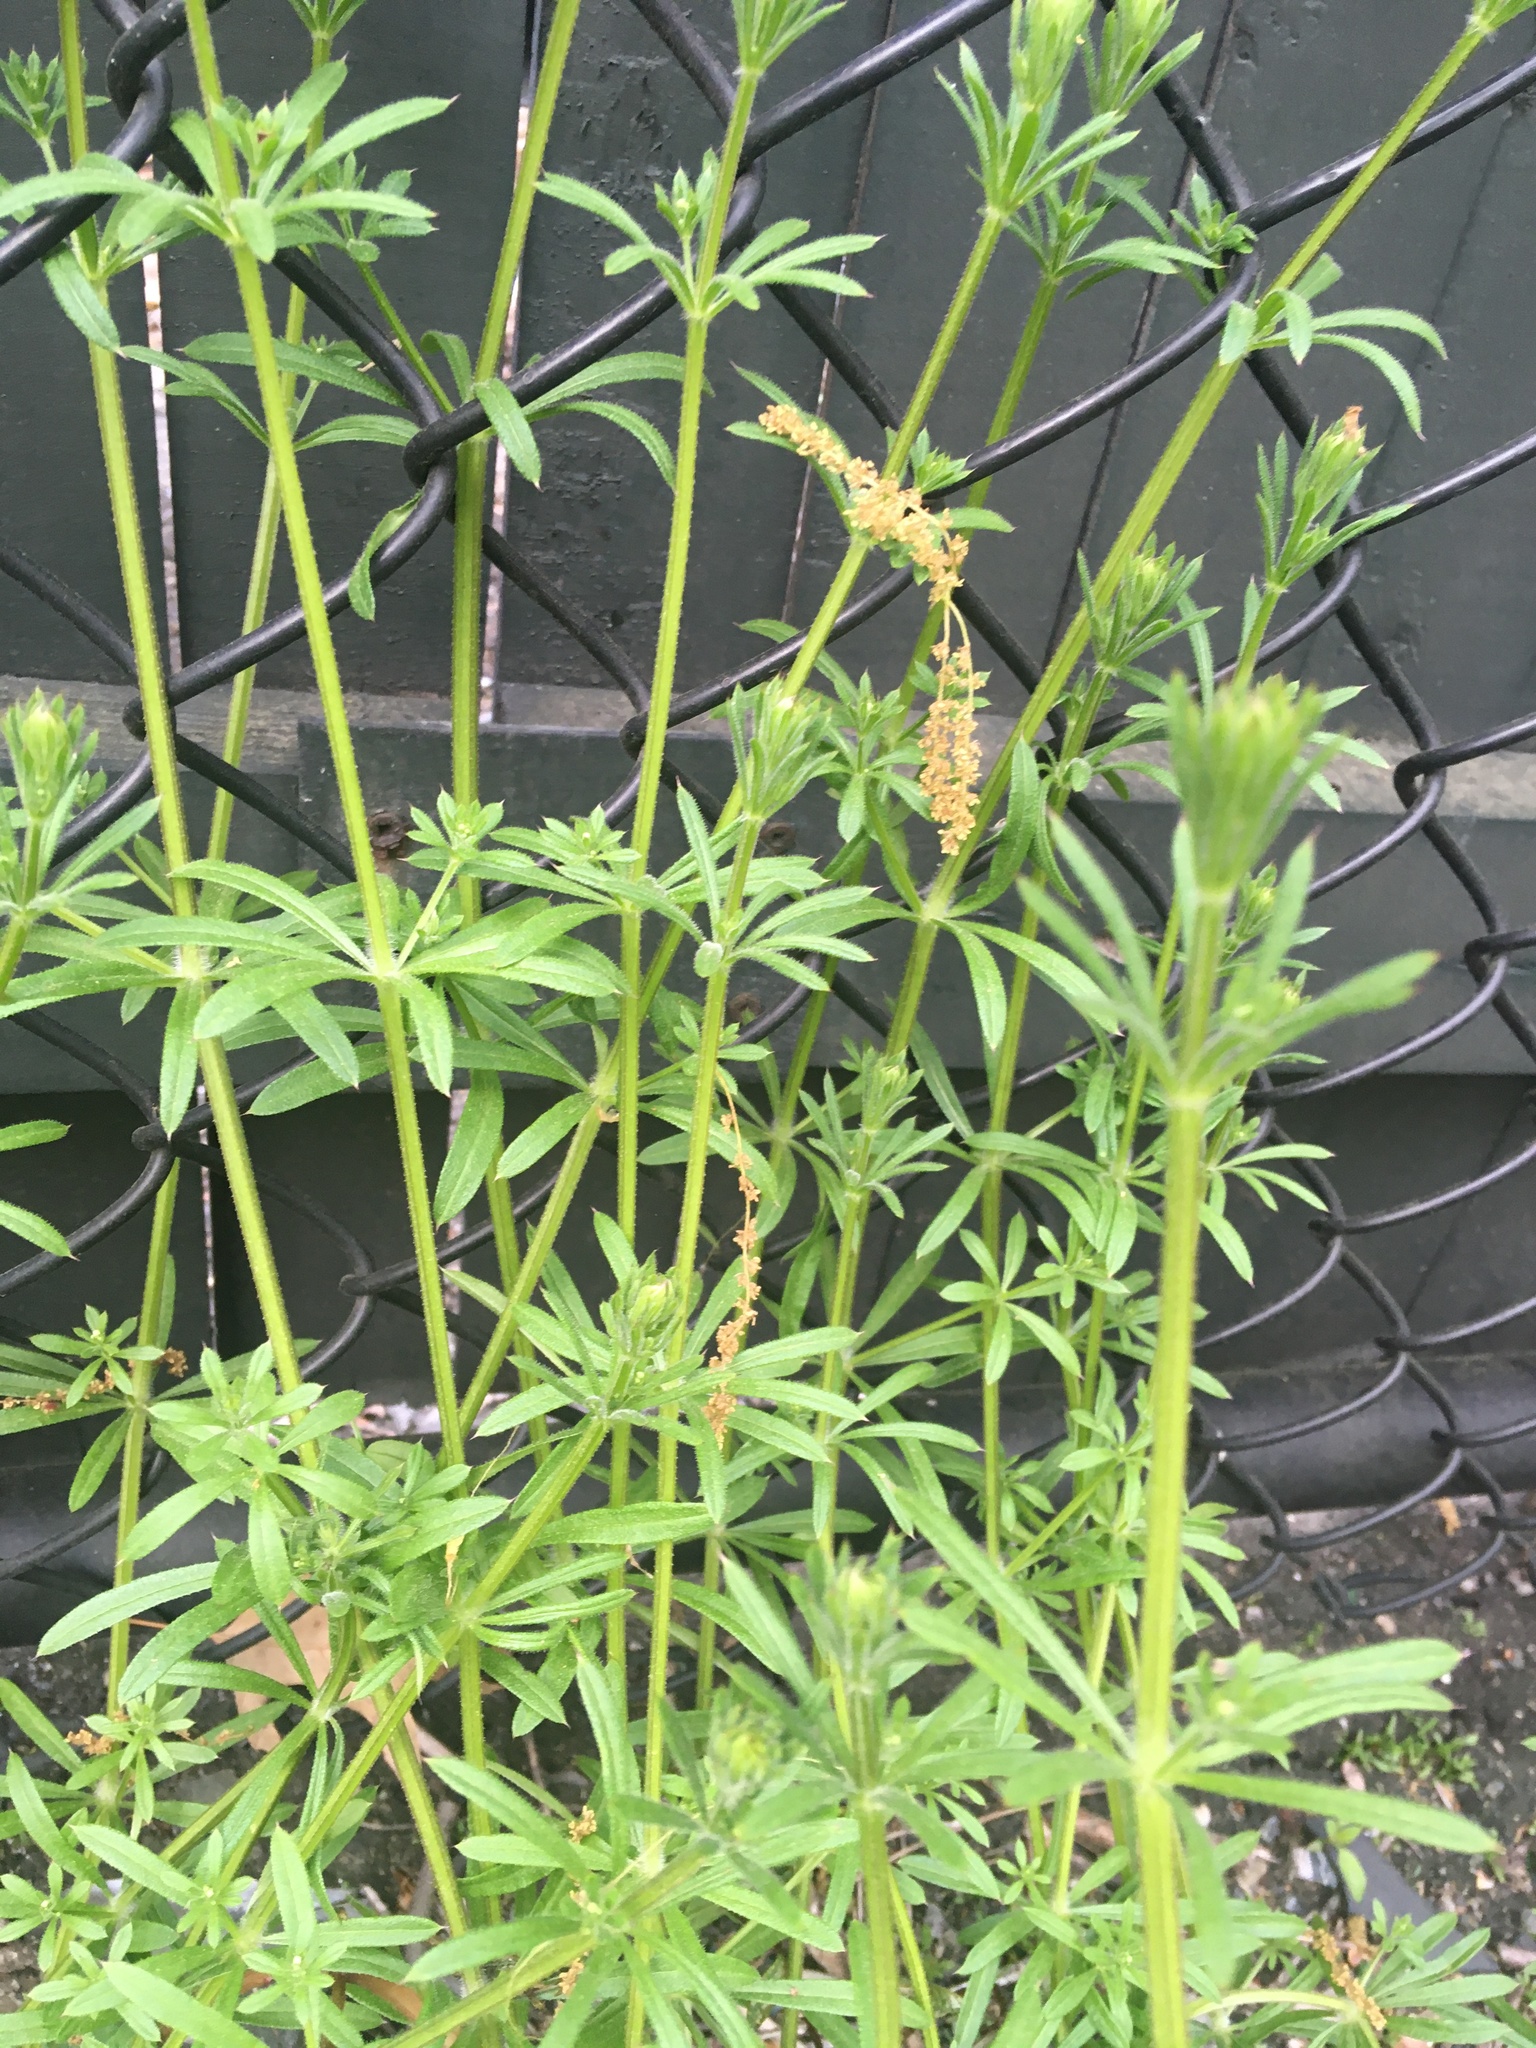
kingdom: Plantae
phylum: Tracheophyta
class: Magnoliopsida
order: Gentianales
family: Rubiaceae
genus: Galium
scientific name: Galium aparine
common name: Cleavers
